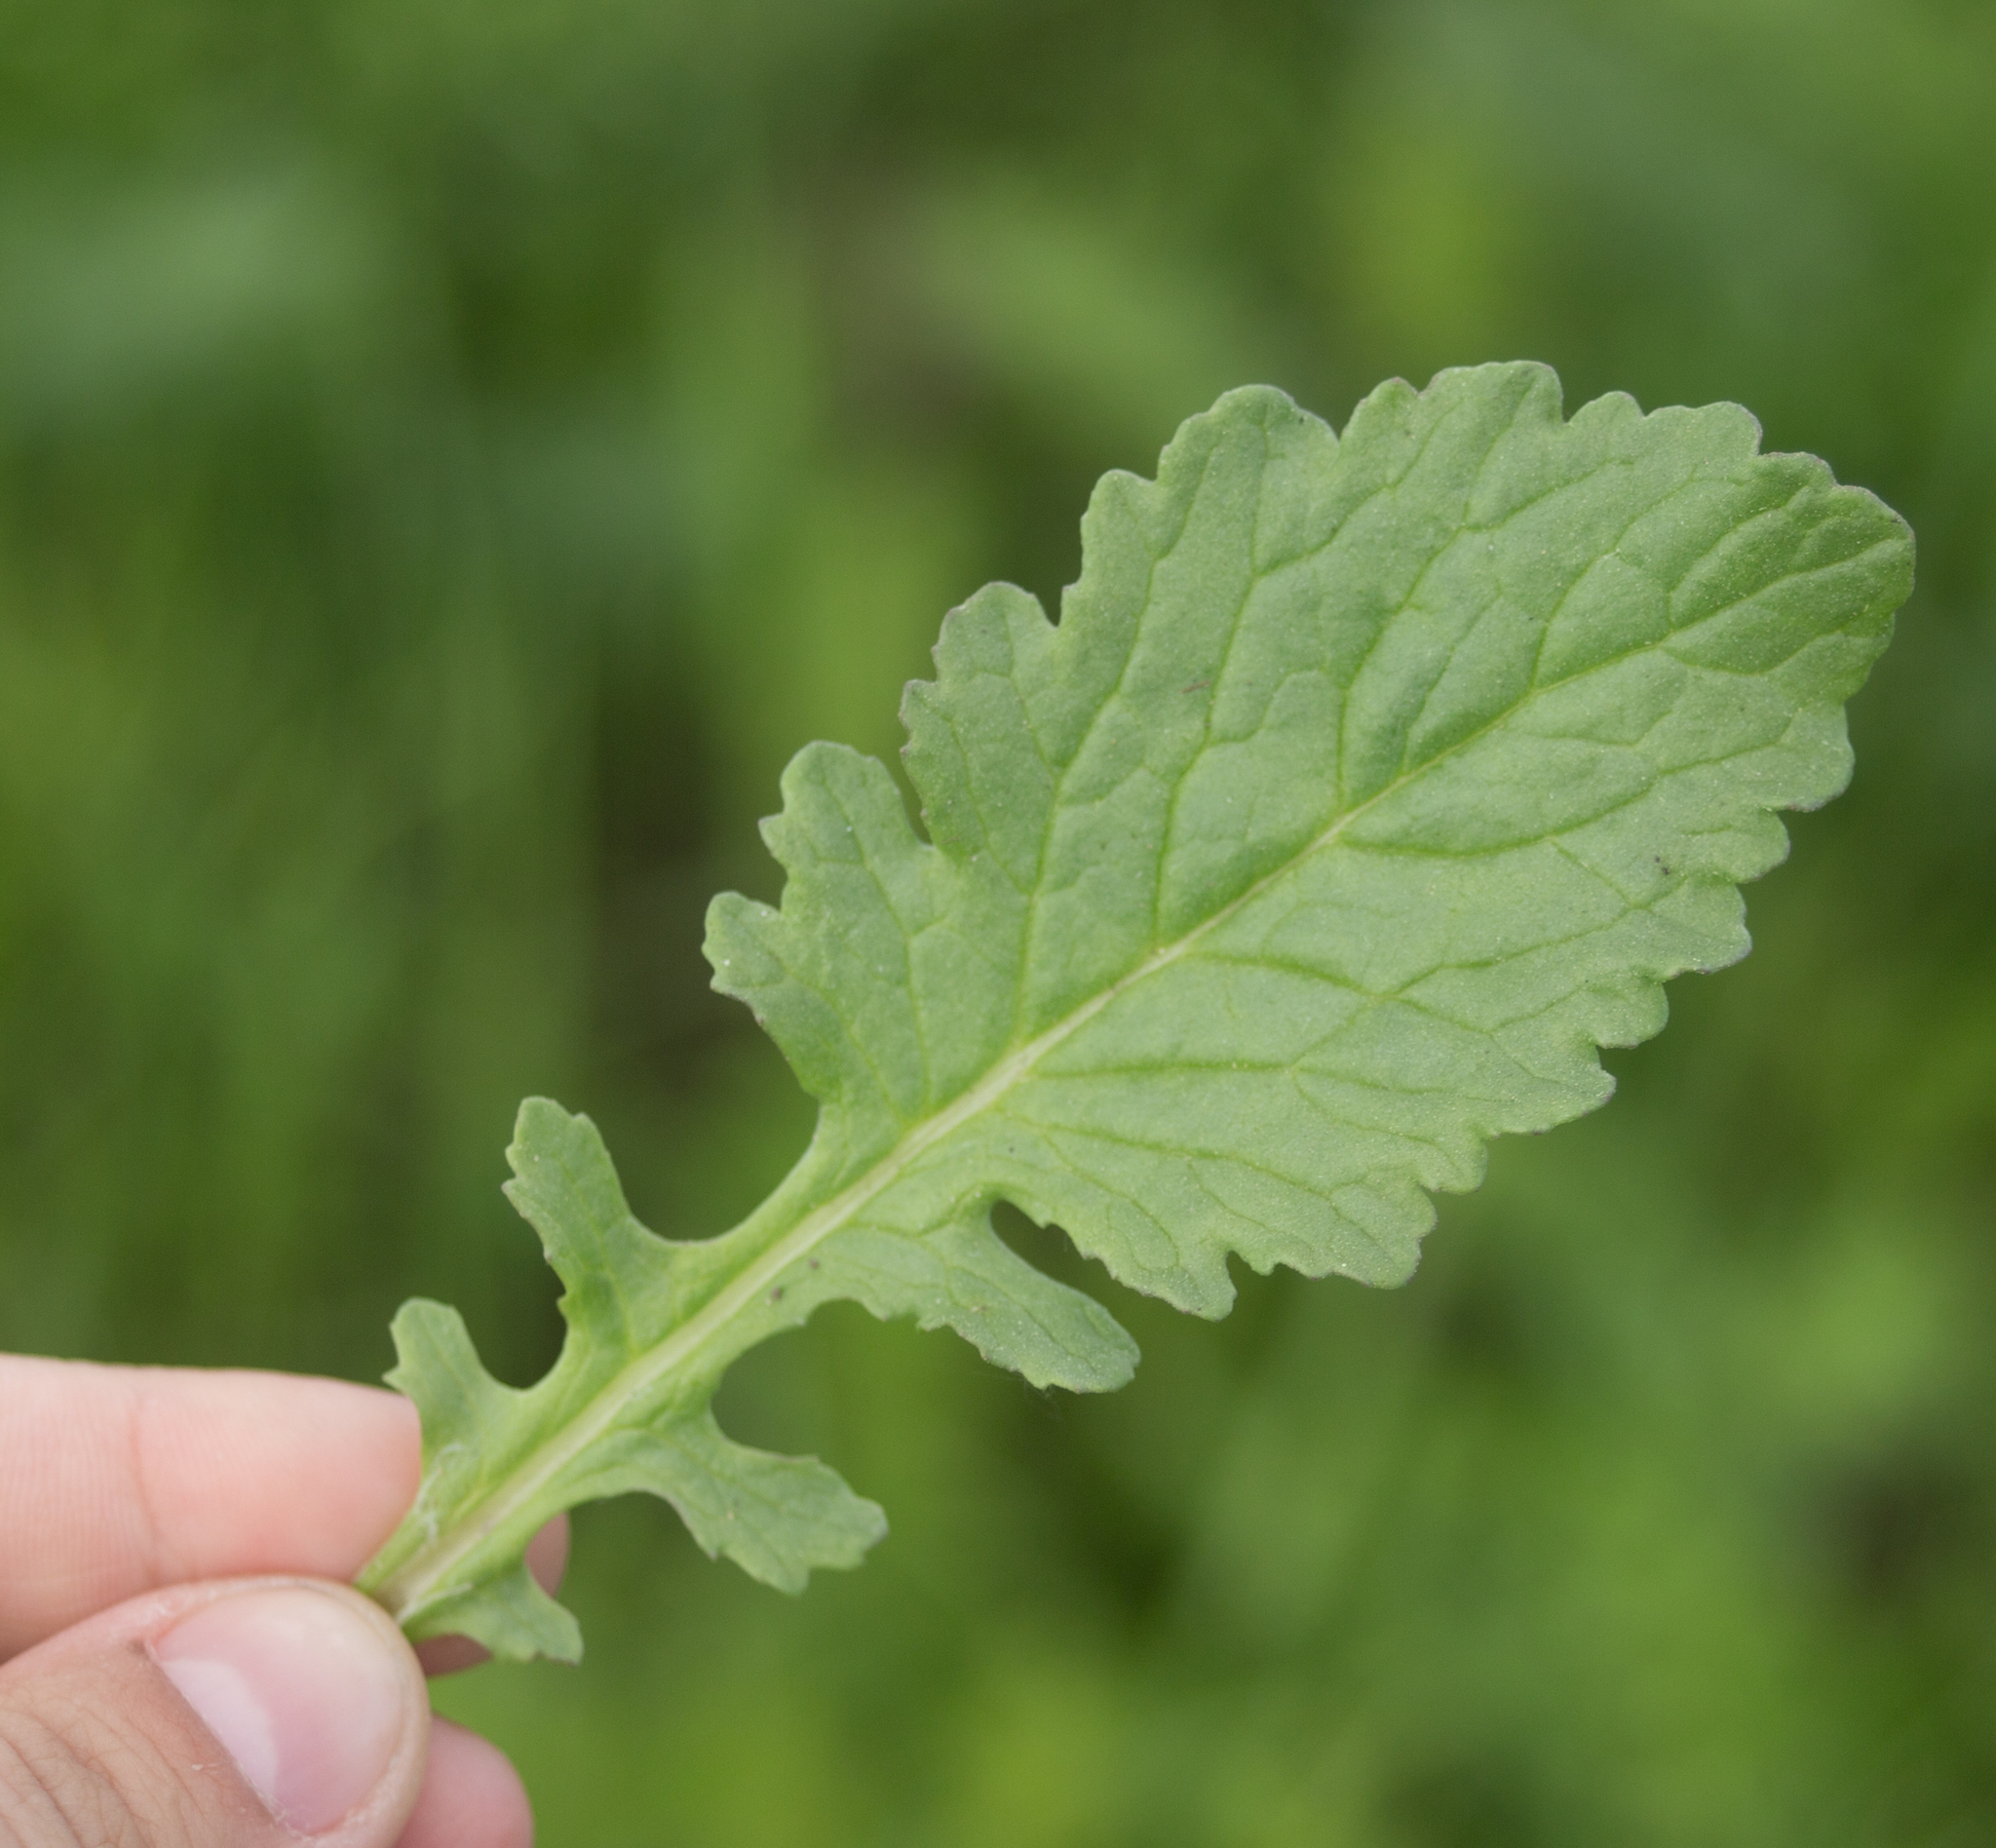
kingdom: Plantae
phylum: Tracheophyta
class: Magnoliopsida
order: Asterales
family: Asteraceae
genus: Jacobaea
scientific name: Jacobaea vulgaris
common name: Stinking willie
